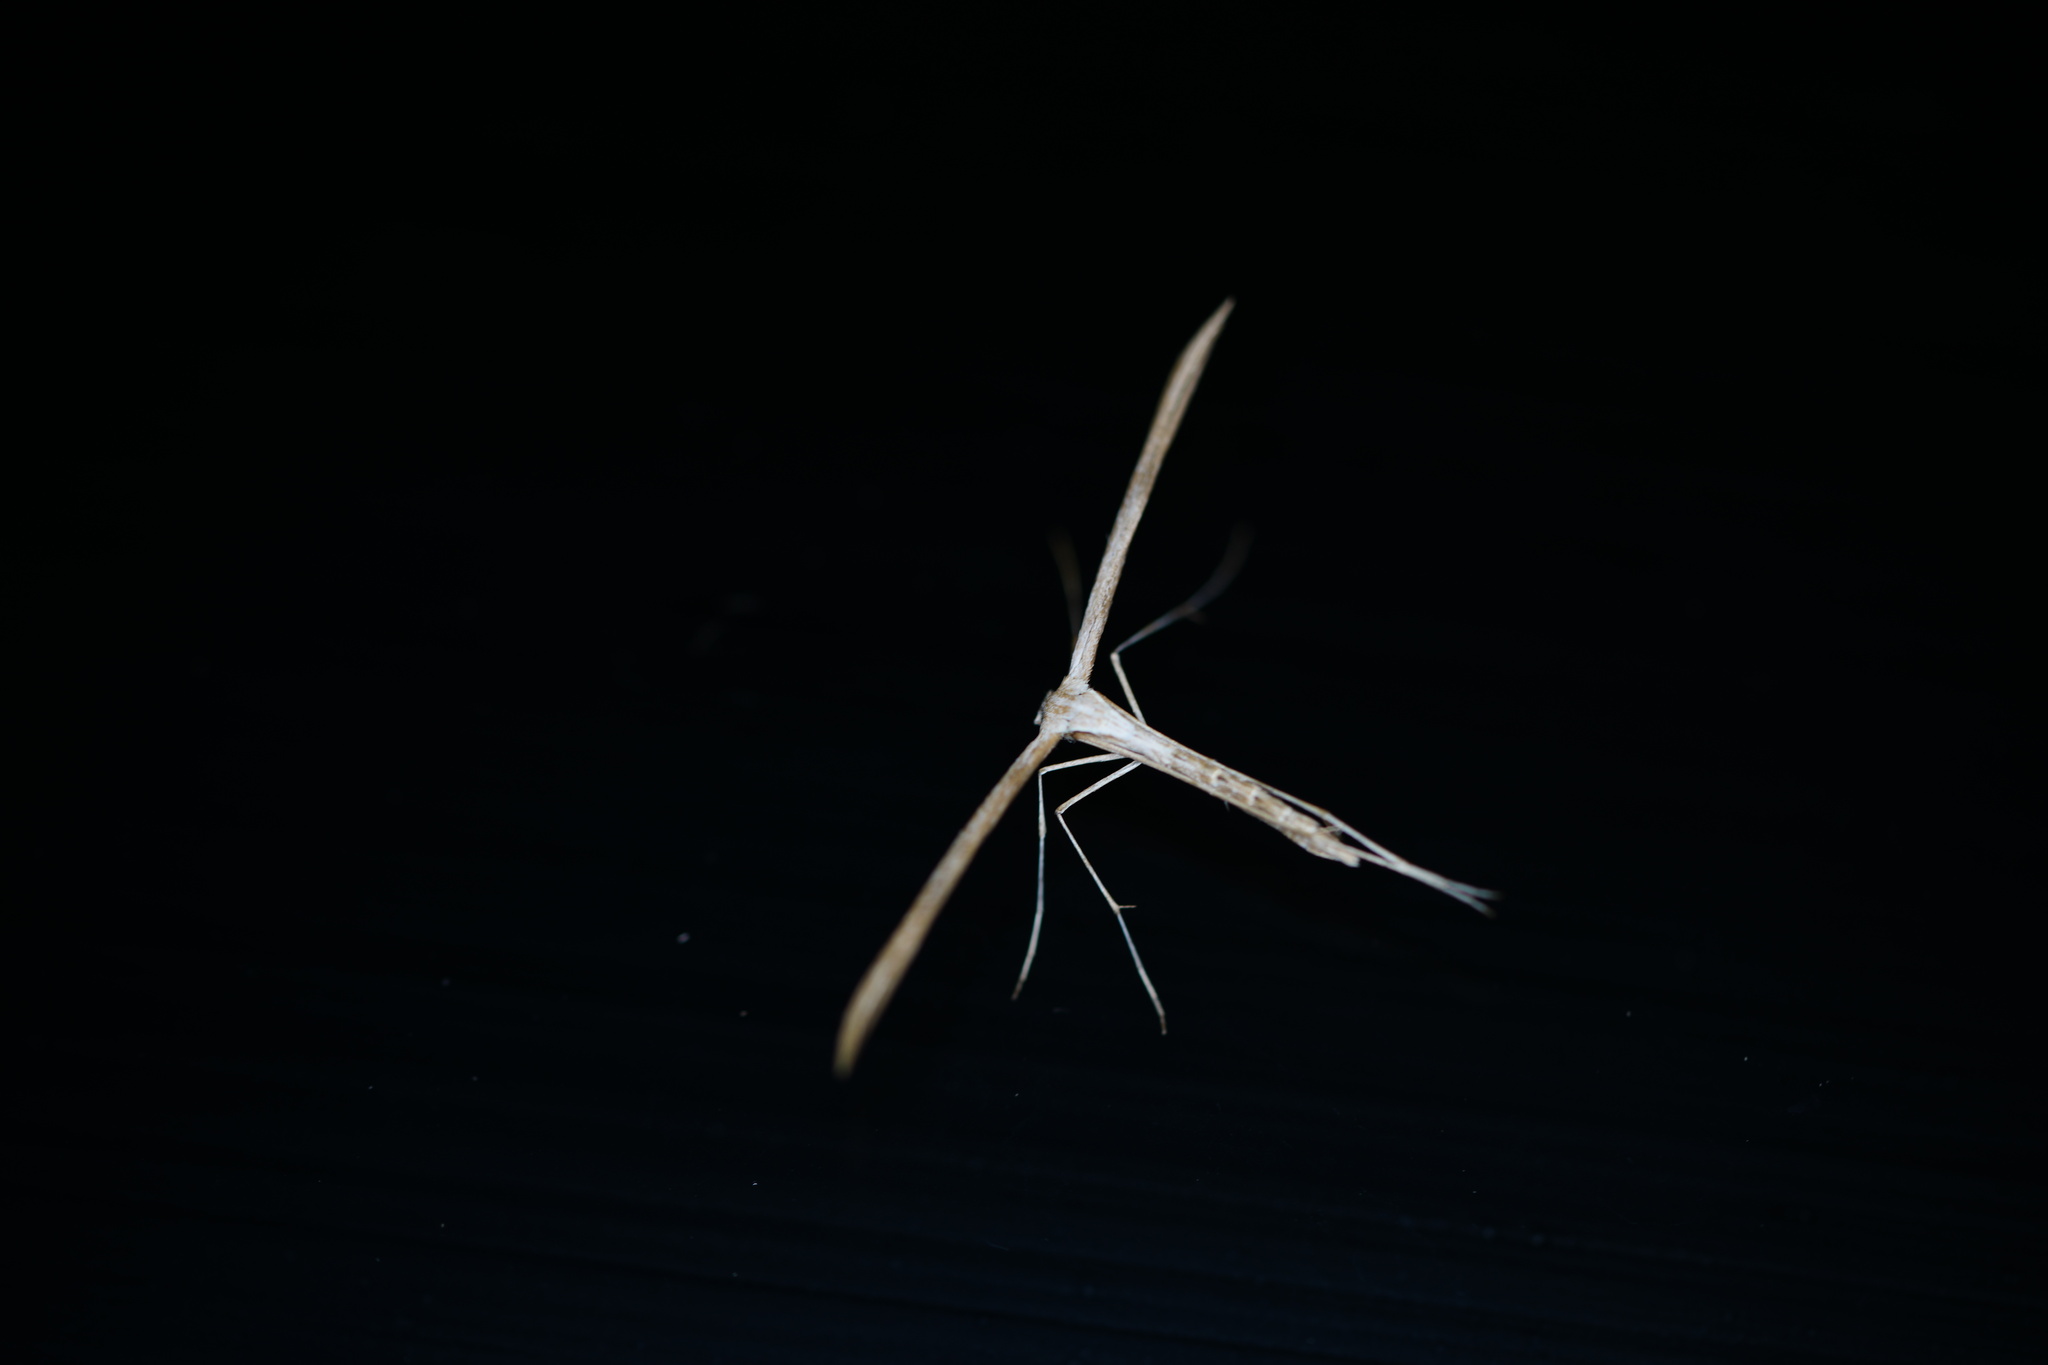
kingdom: Animalia
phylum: Arthropoda
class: Insecta
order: Lepidoptera
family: Pterophoridae
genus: Emmelina
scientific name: Emmelina monodactyla
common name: Common plume
